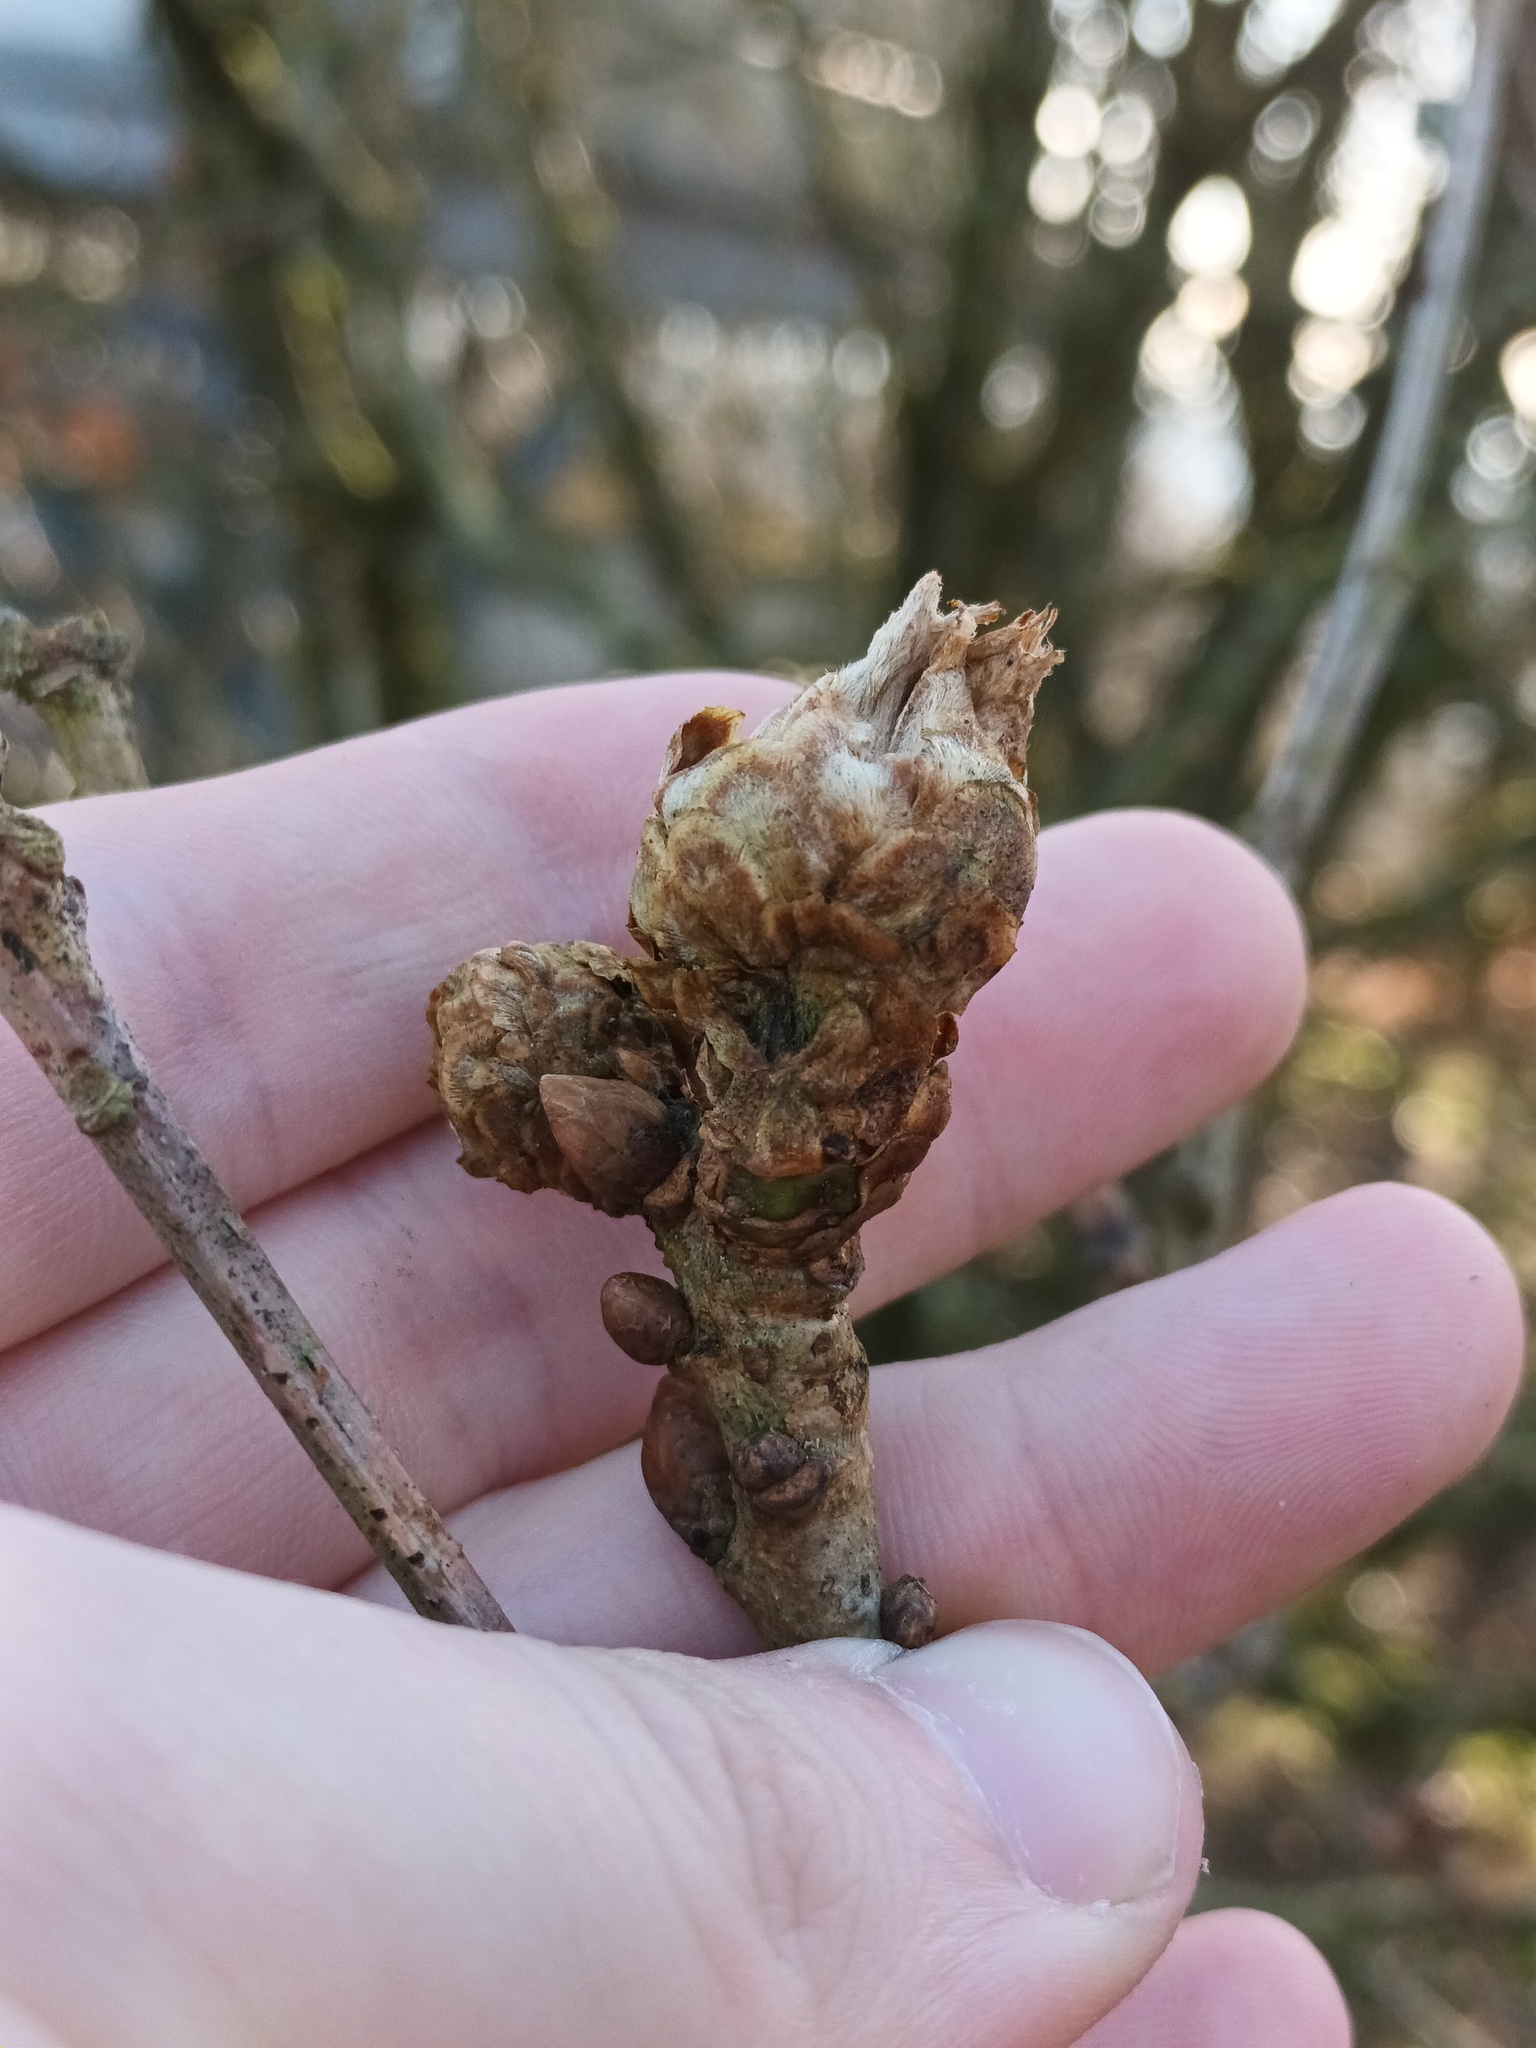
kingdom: Animalia
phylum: Arthropoda
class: Insecta
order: Hymenoptera
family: Cynipidae
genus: Andricus
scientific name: Andricus foecundatrix
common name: Artichoke gall
